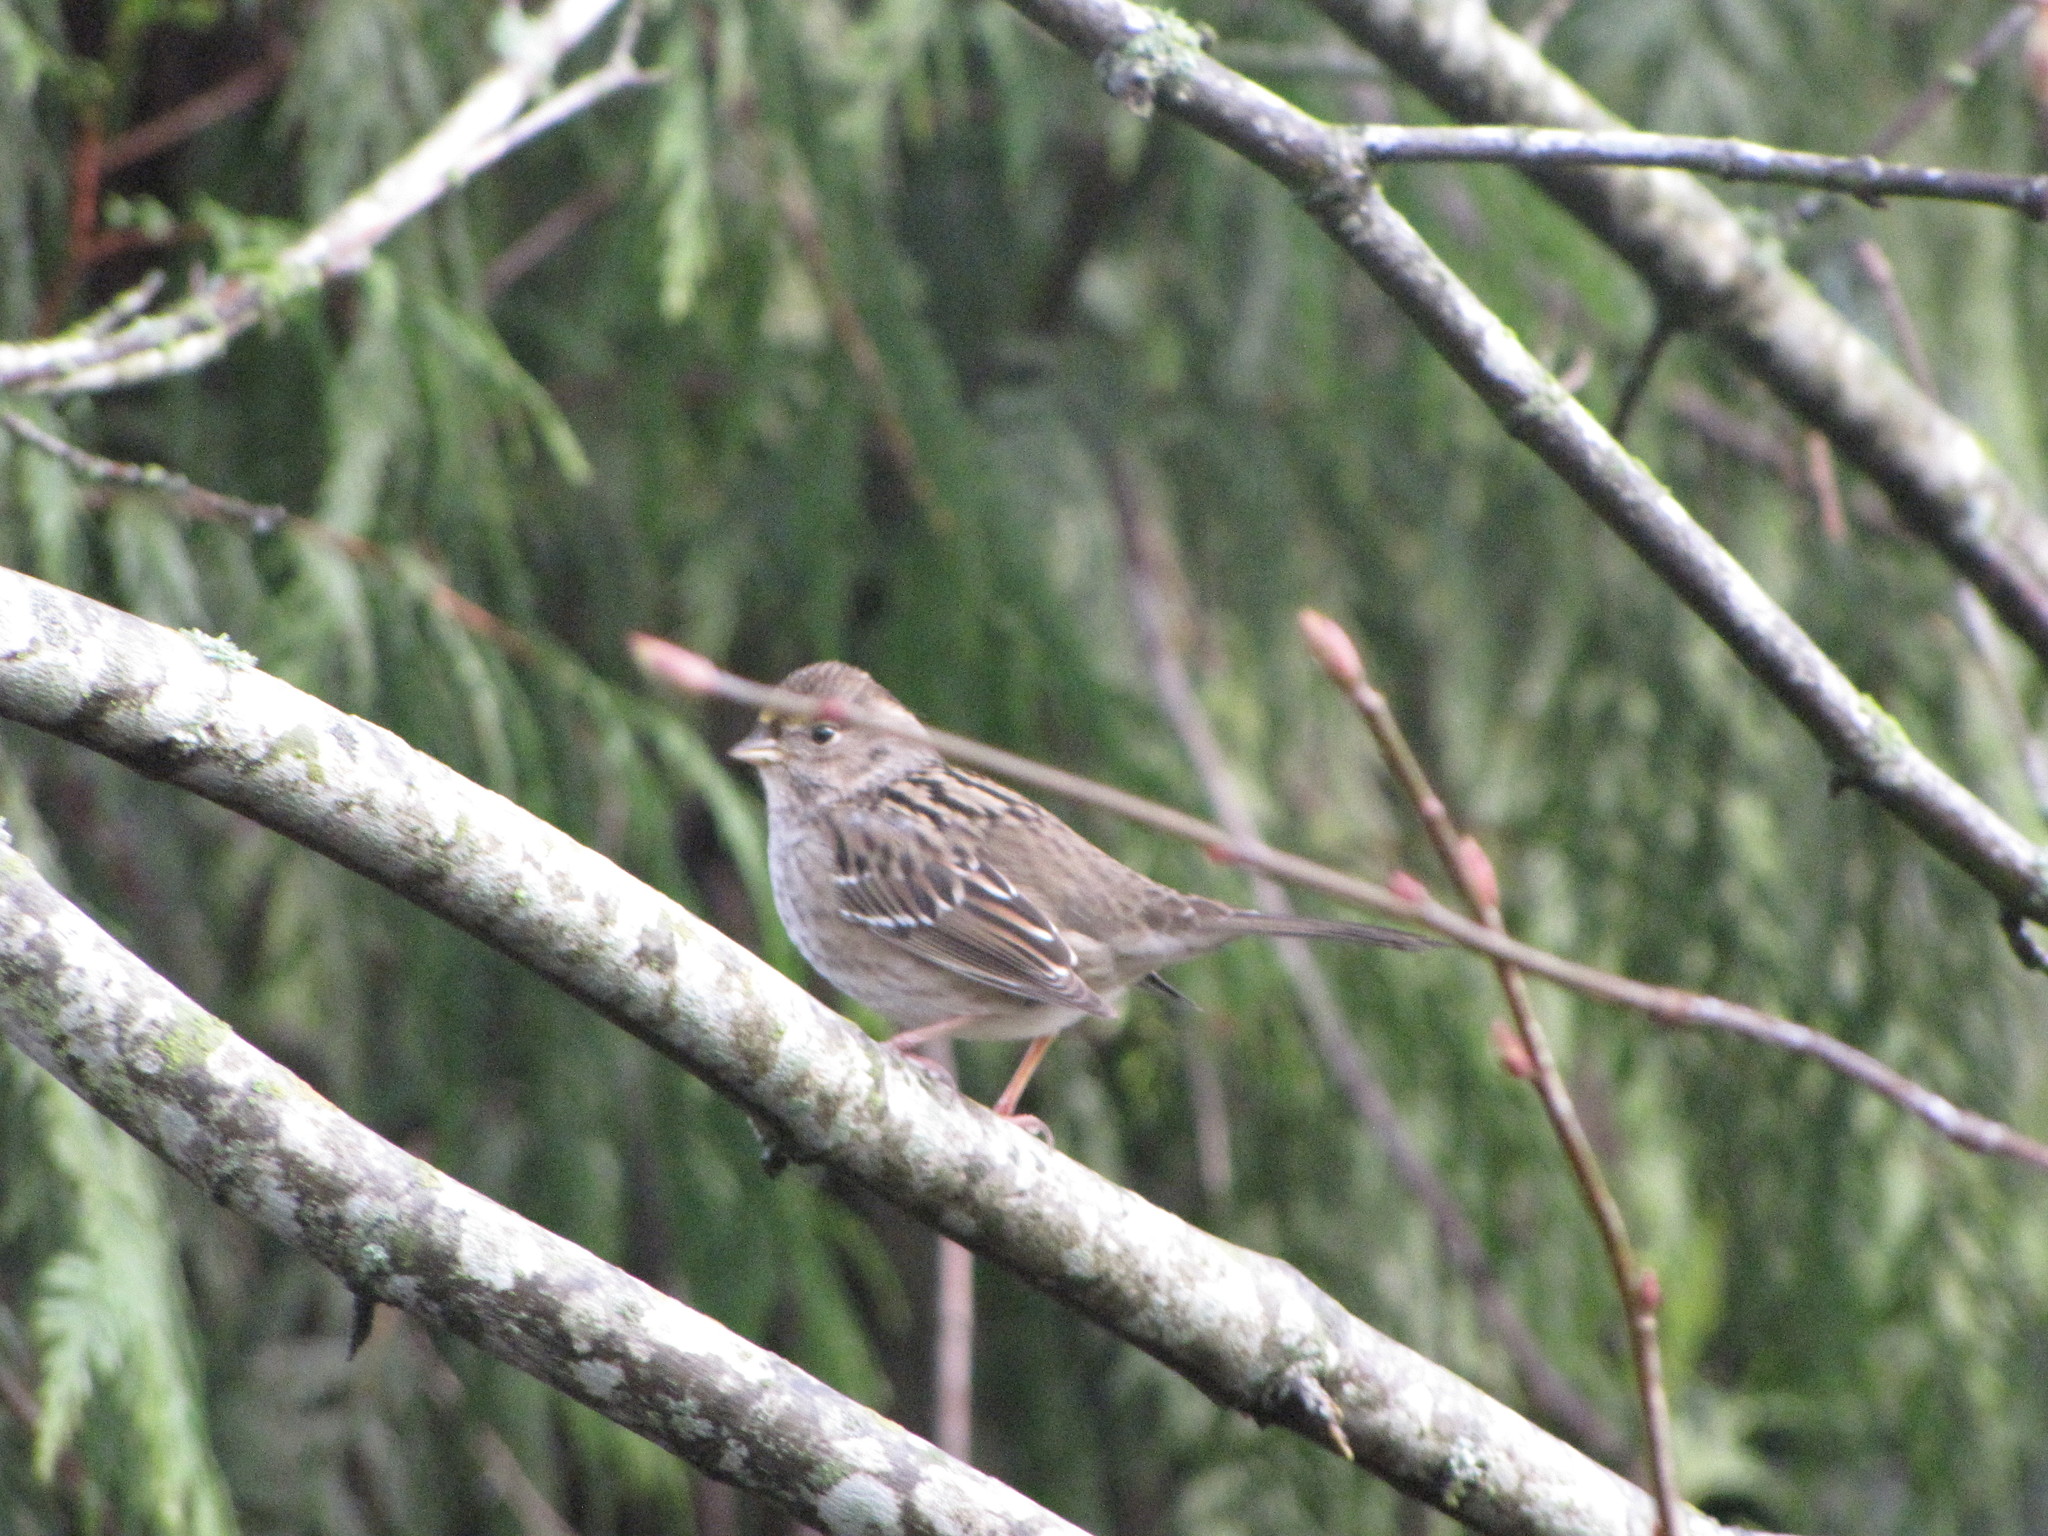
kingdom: Animalia
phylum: Chordata
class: Aves
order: Passeriformes
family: Passerellidae
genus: Zonotrichia
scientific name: Zonotrichia atricapilla
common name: Golden-crowned sparrow
